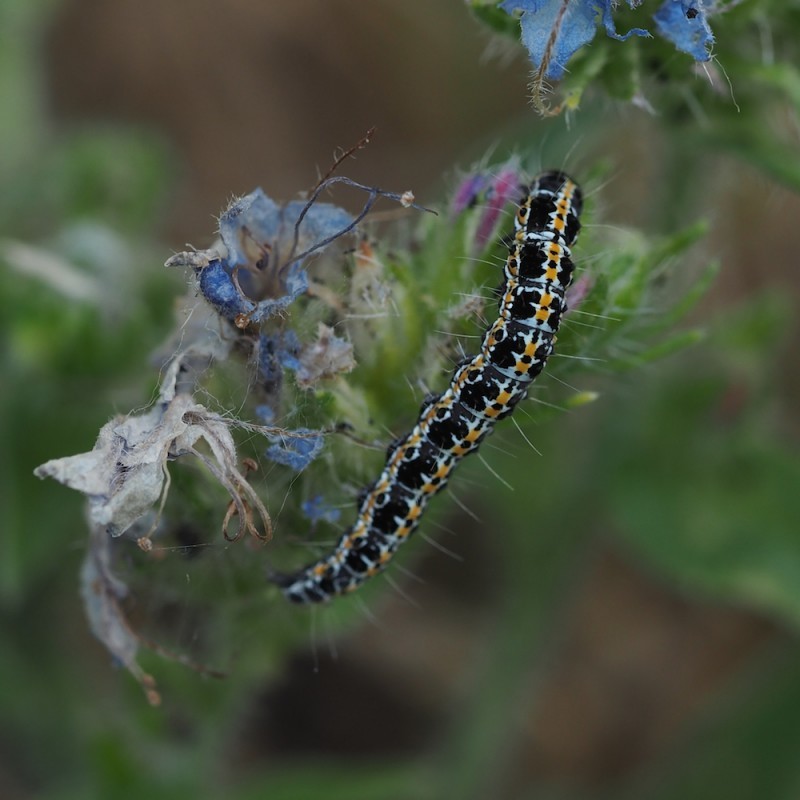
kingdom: Animalia
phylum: Arthropoda
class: Insecta
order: Lepidoptera
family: Ethmiidae
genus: Ethmia
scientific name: Ethmia bipunctella
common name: Bordered ermel
